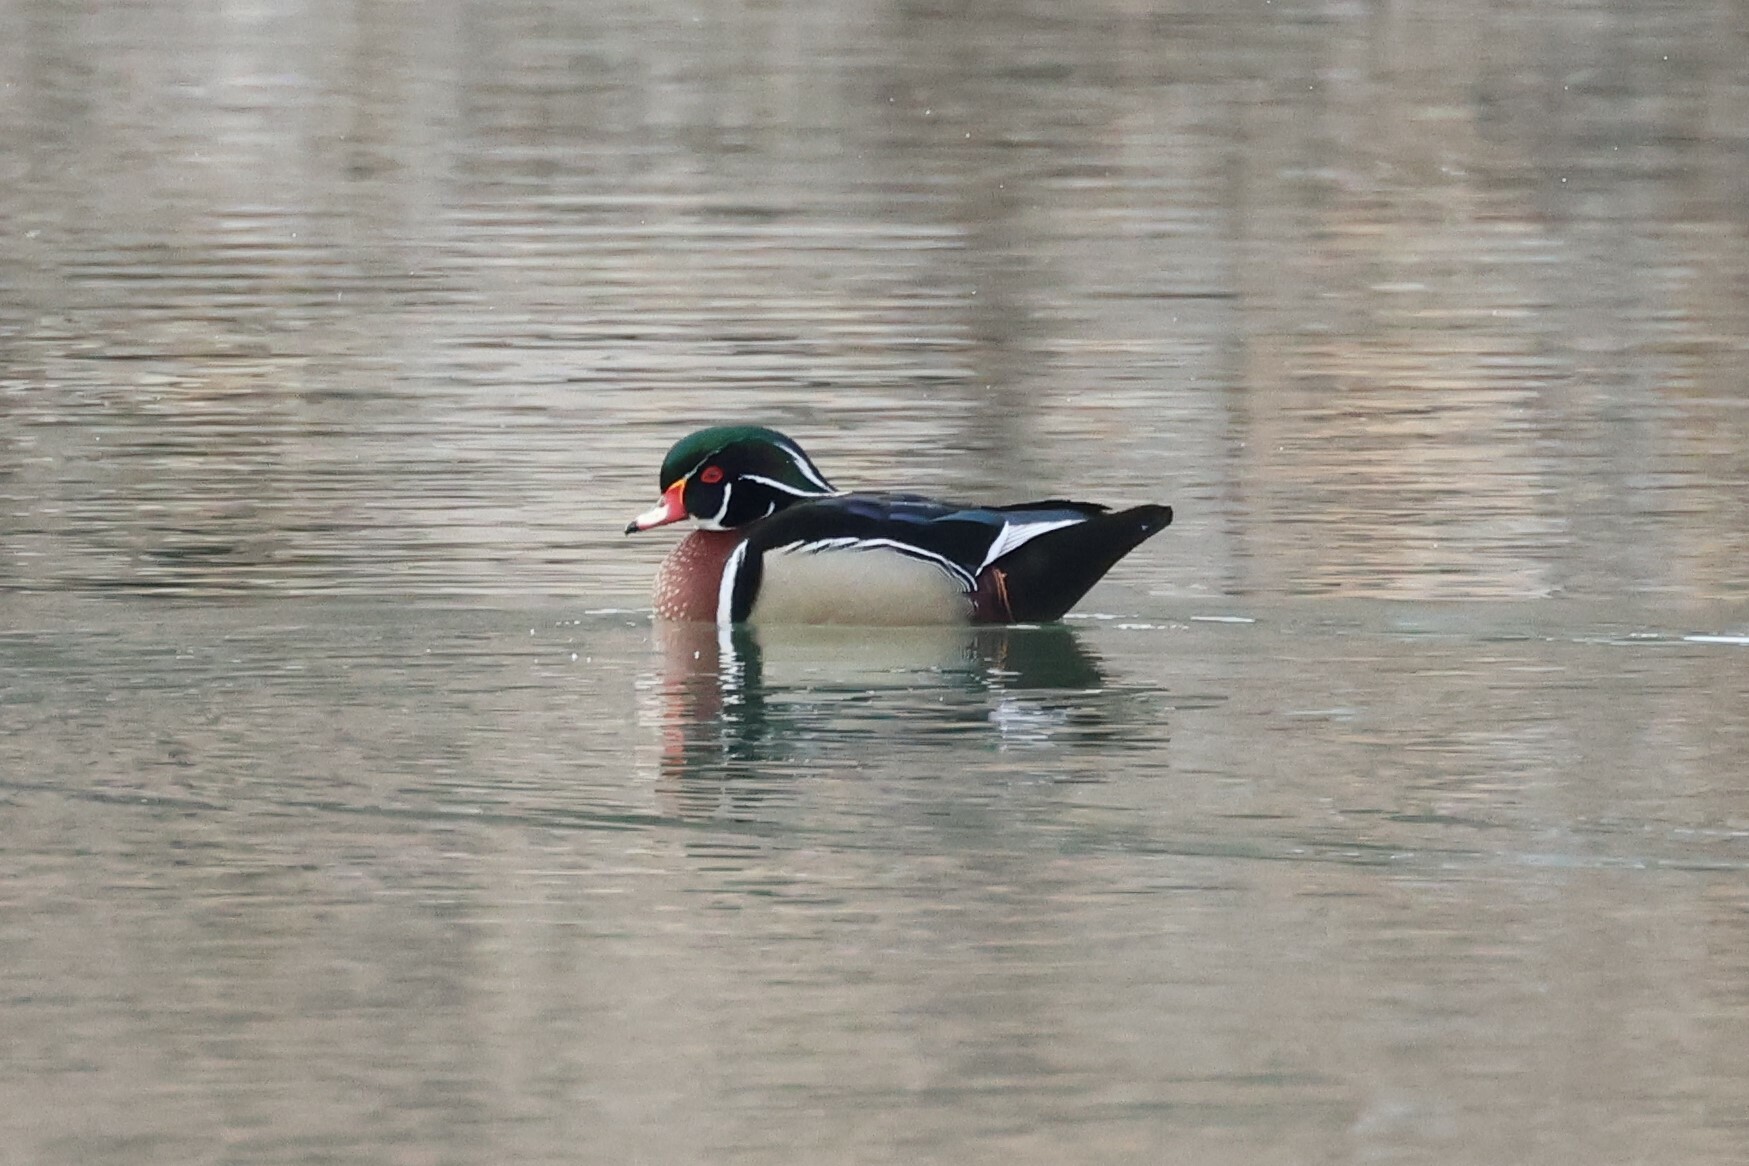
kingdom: Animalia
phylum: Chordata
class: Aves
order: Anseriformes
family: Anatidae
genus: Aix
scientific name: Aix sponsa
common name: Wood duck
